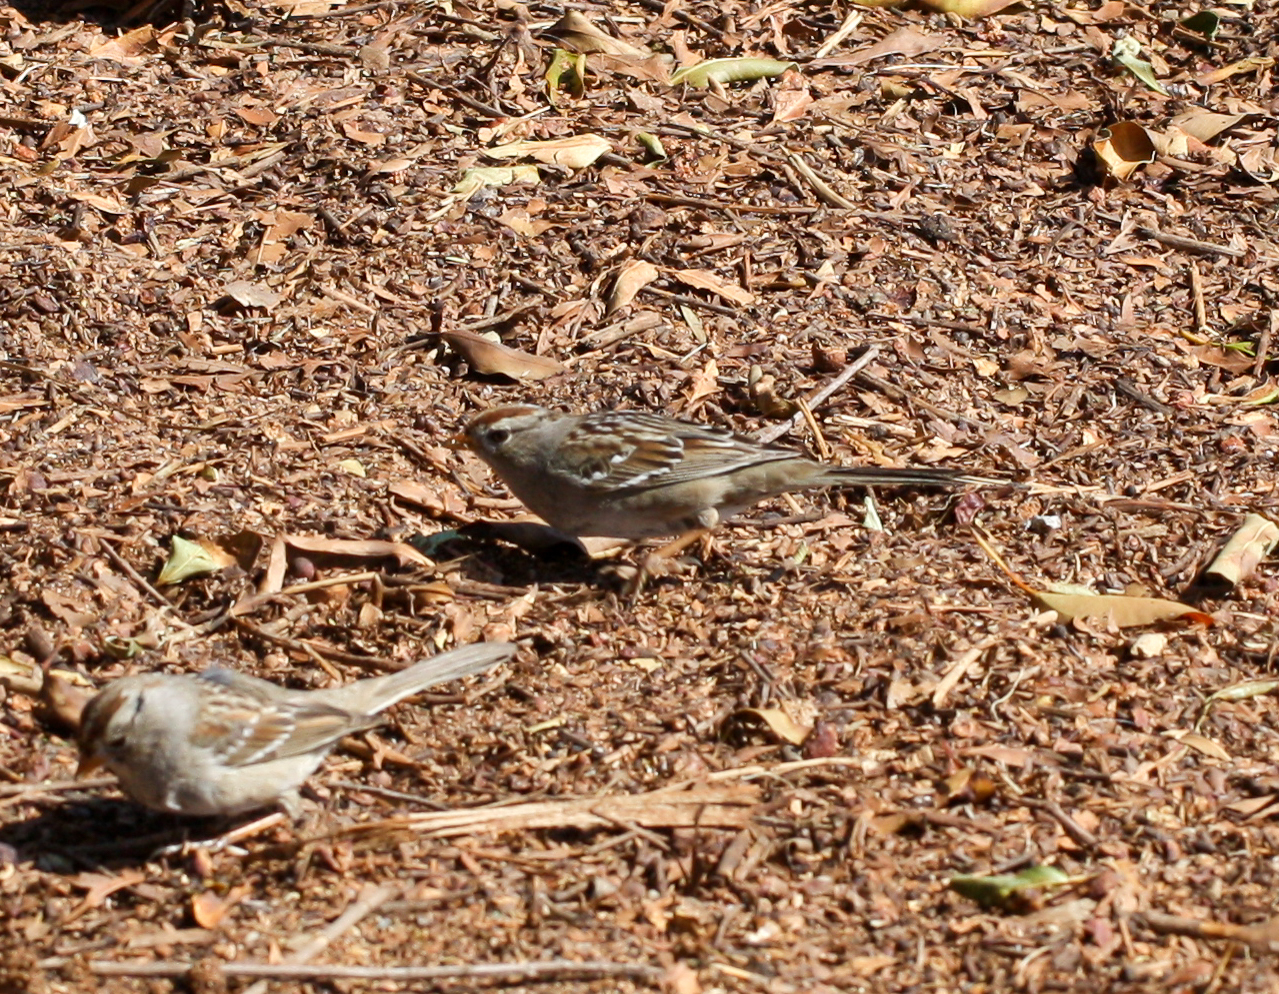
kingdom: Animalia
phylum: Chordata
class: Aves
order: Passeriformes
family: Passerellidae
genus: Zonotrichia
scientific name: Zonotrichia leucophrys
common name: White-crowned sparrow
